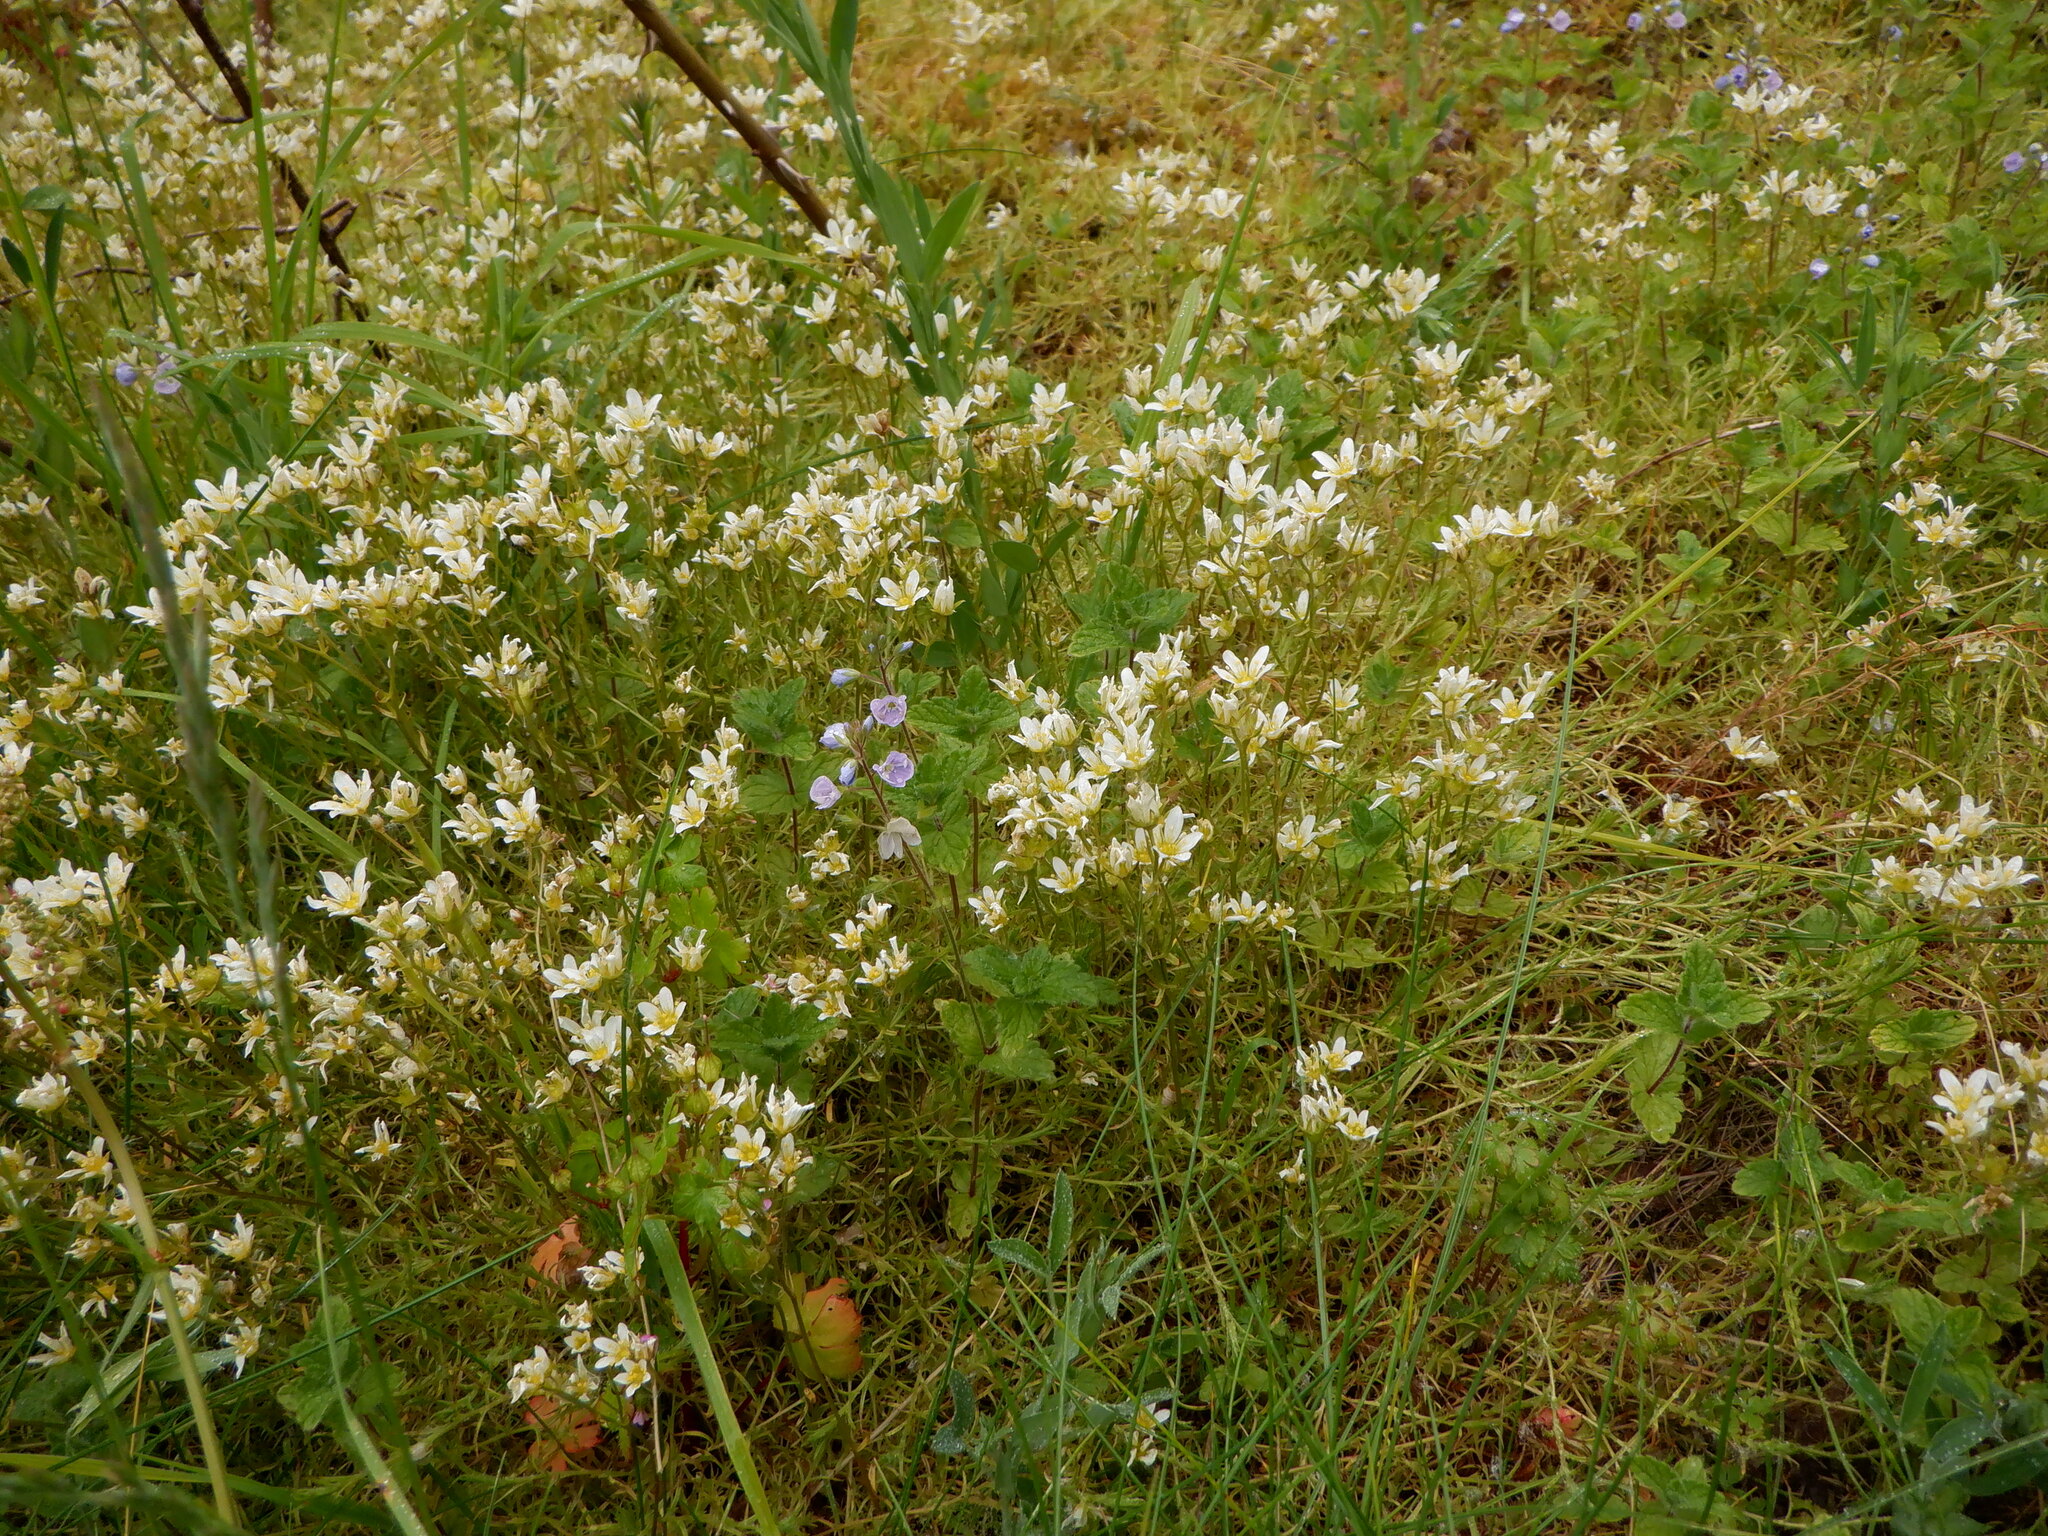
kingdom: Plantae
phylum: Tracheophyta
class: Magnoliopsida
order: Saxifragales
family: Saxifragaceae
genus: Saxifraga
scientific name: Saxifraga hypnoides
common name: Mossy saxifrage
